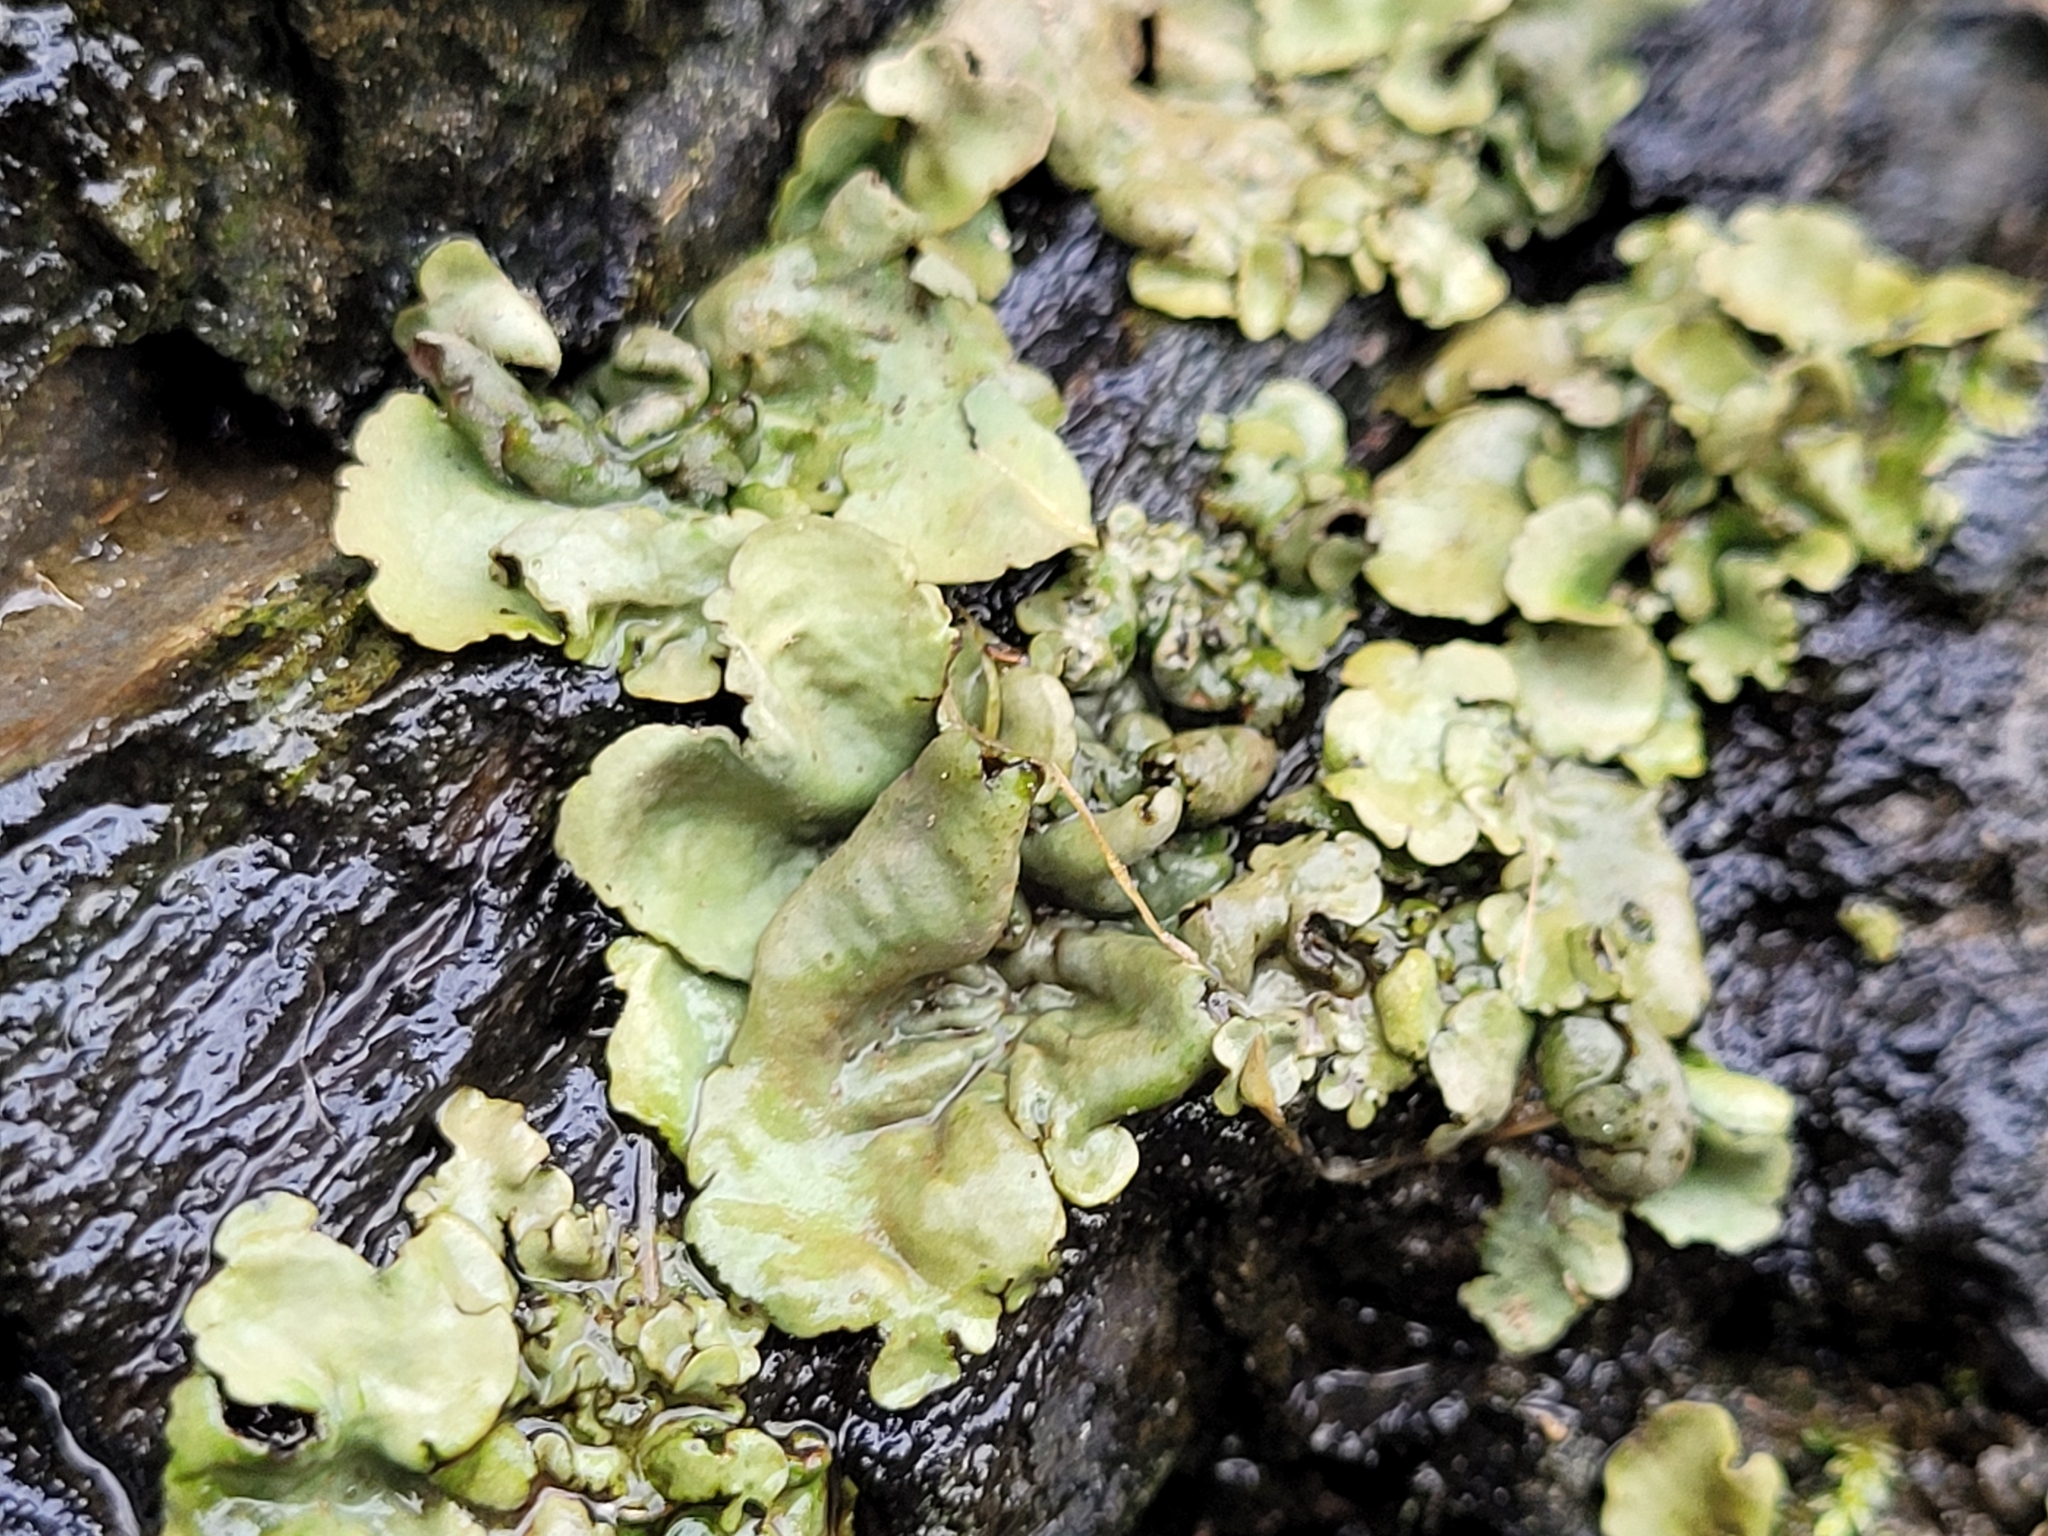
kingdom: Fungi
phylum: Ascomycota
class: Eurotiomycetes
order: Verrucariales
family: Verrucariaceae
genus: Dermatocarpon
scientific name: Dermatocarpon luridum
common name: Brook stippleback lichen
